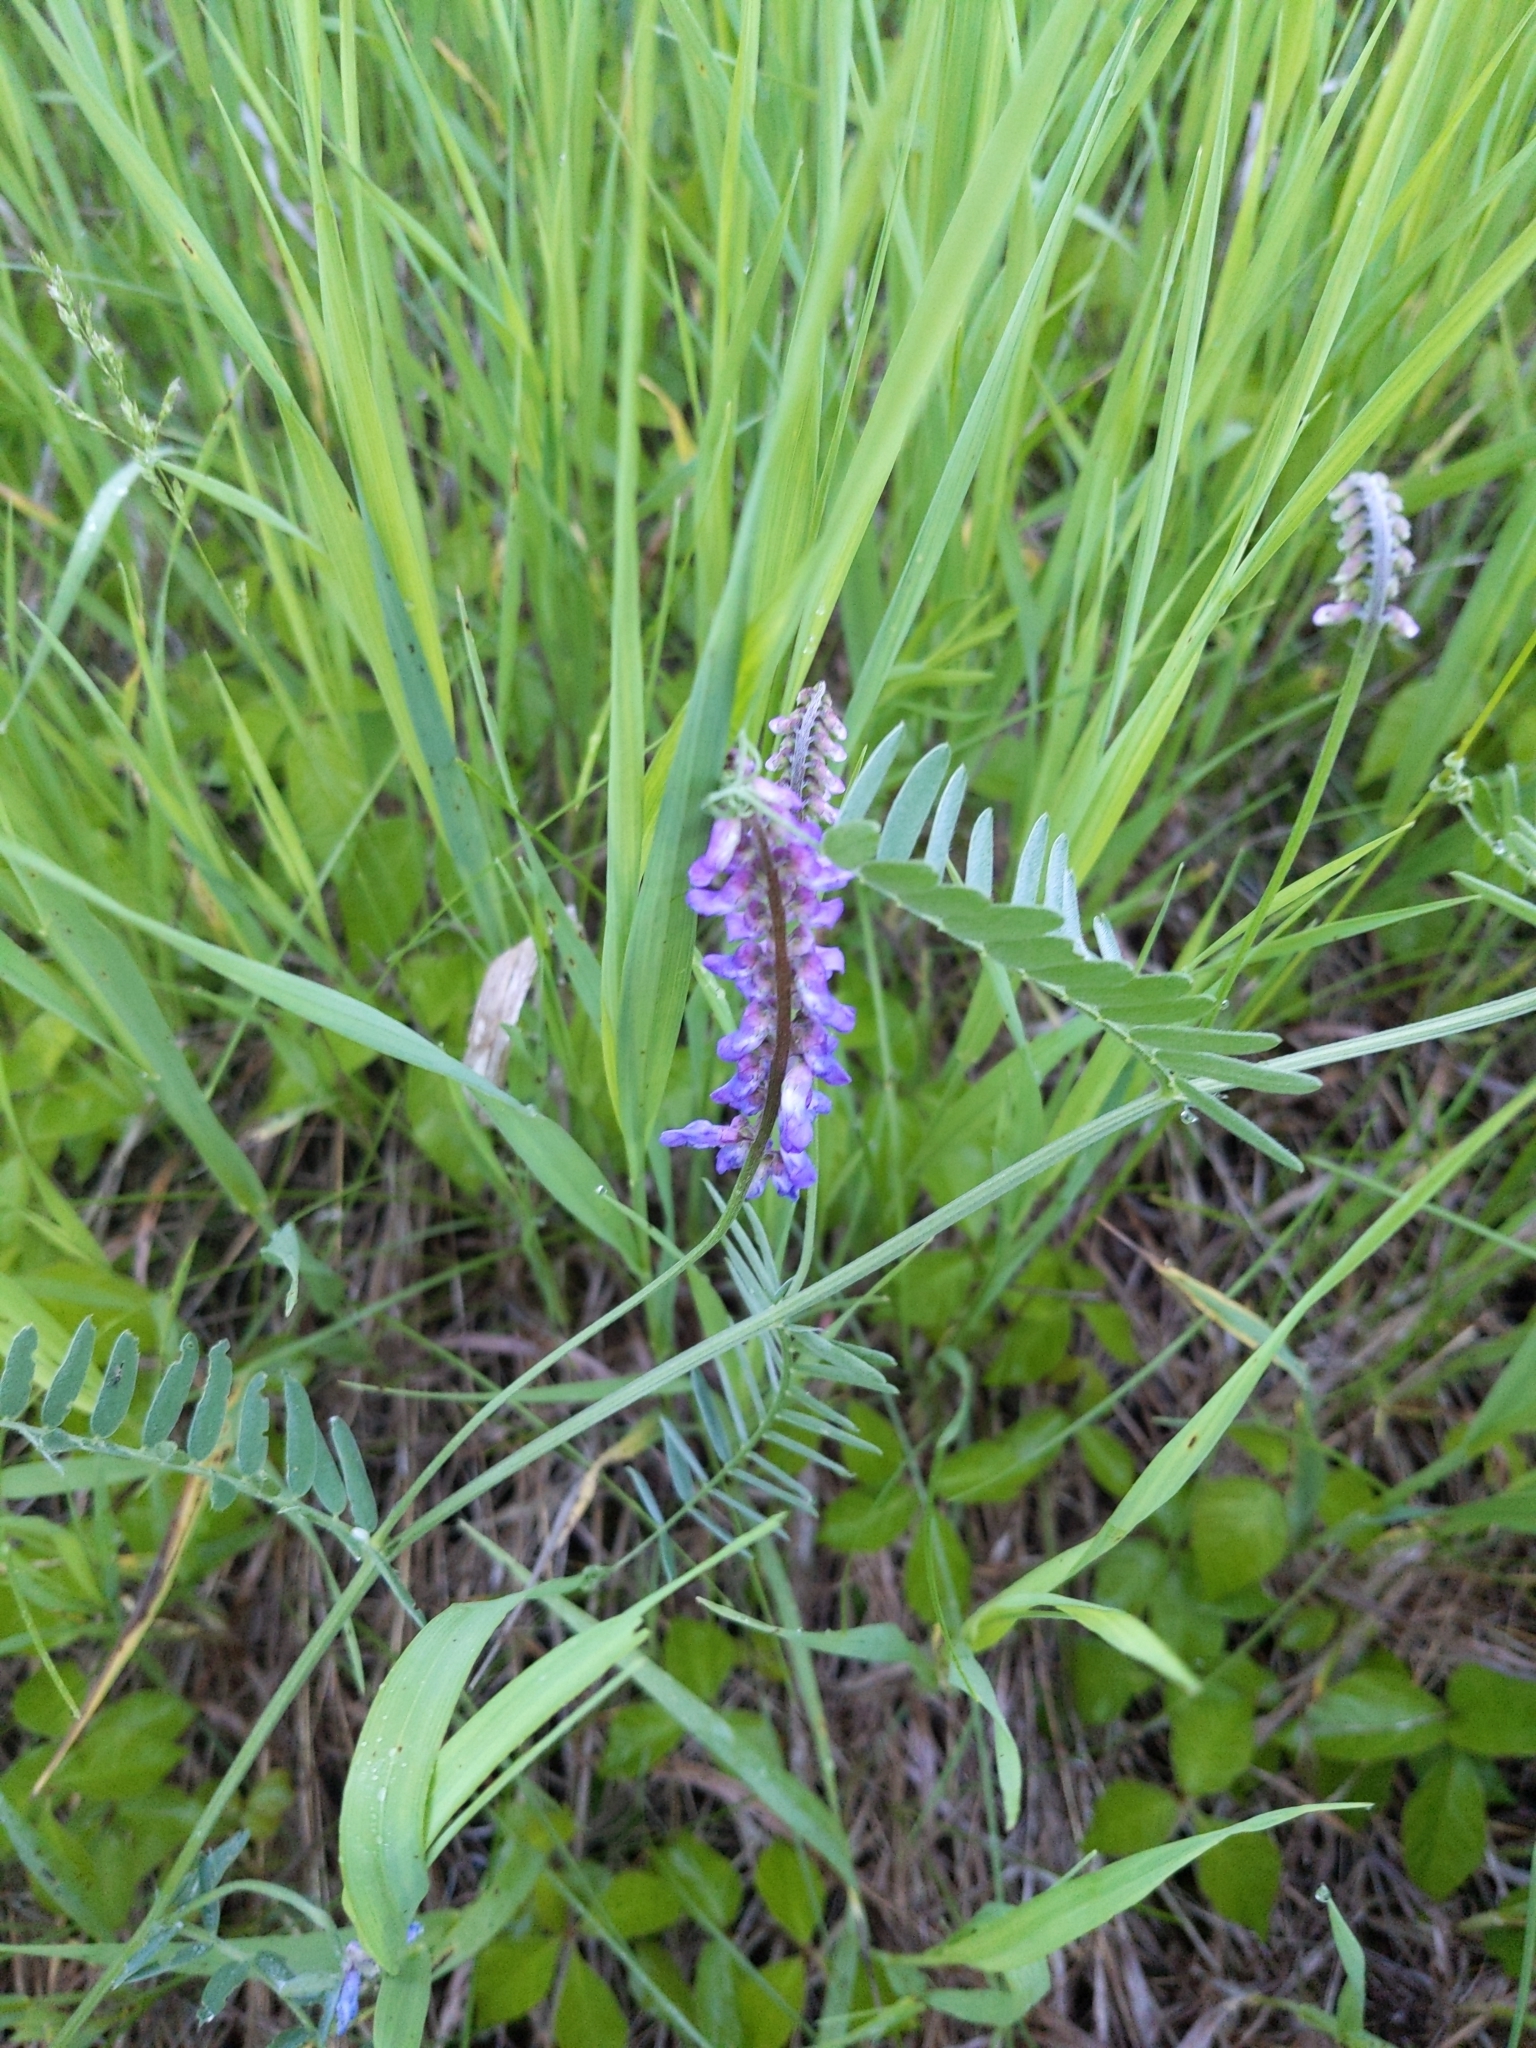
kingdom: Plantae
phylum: Tracheophyta
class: Magnoliopsida
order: Fabales
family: Fabaceae
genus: Vicia
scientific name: Vicia cracca
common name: Bird vetch
